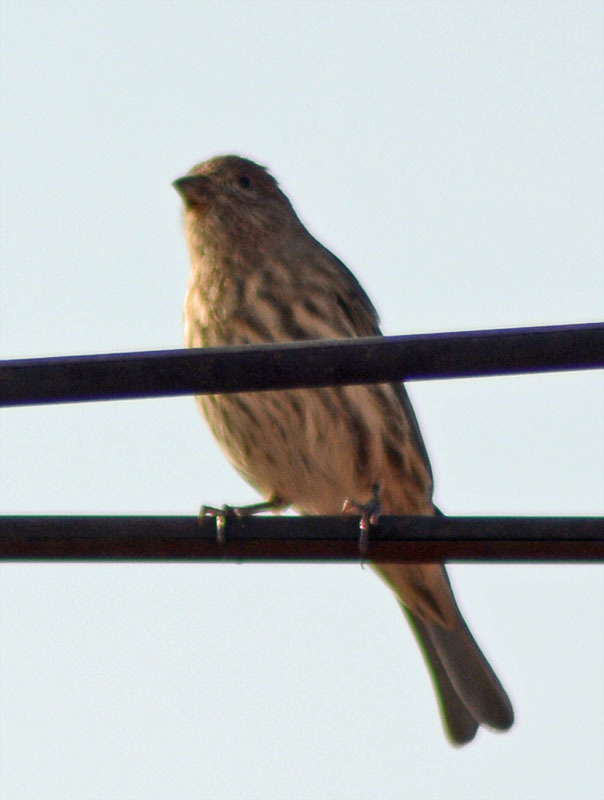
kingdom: Animalia
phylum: Chordata
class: Aves
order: Passeriformes
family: Fringillidae
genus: Haemorhous
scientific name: Haemorhous mexicanus
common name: House finch
